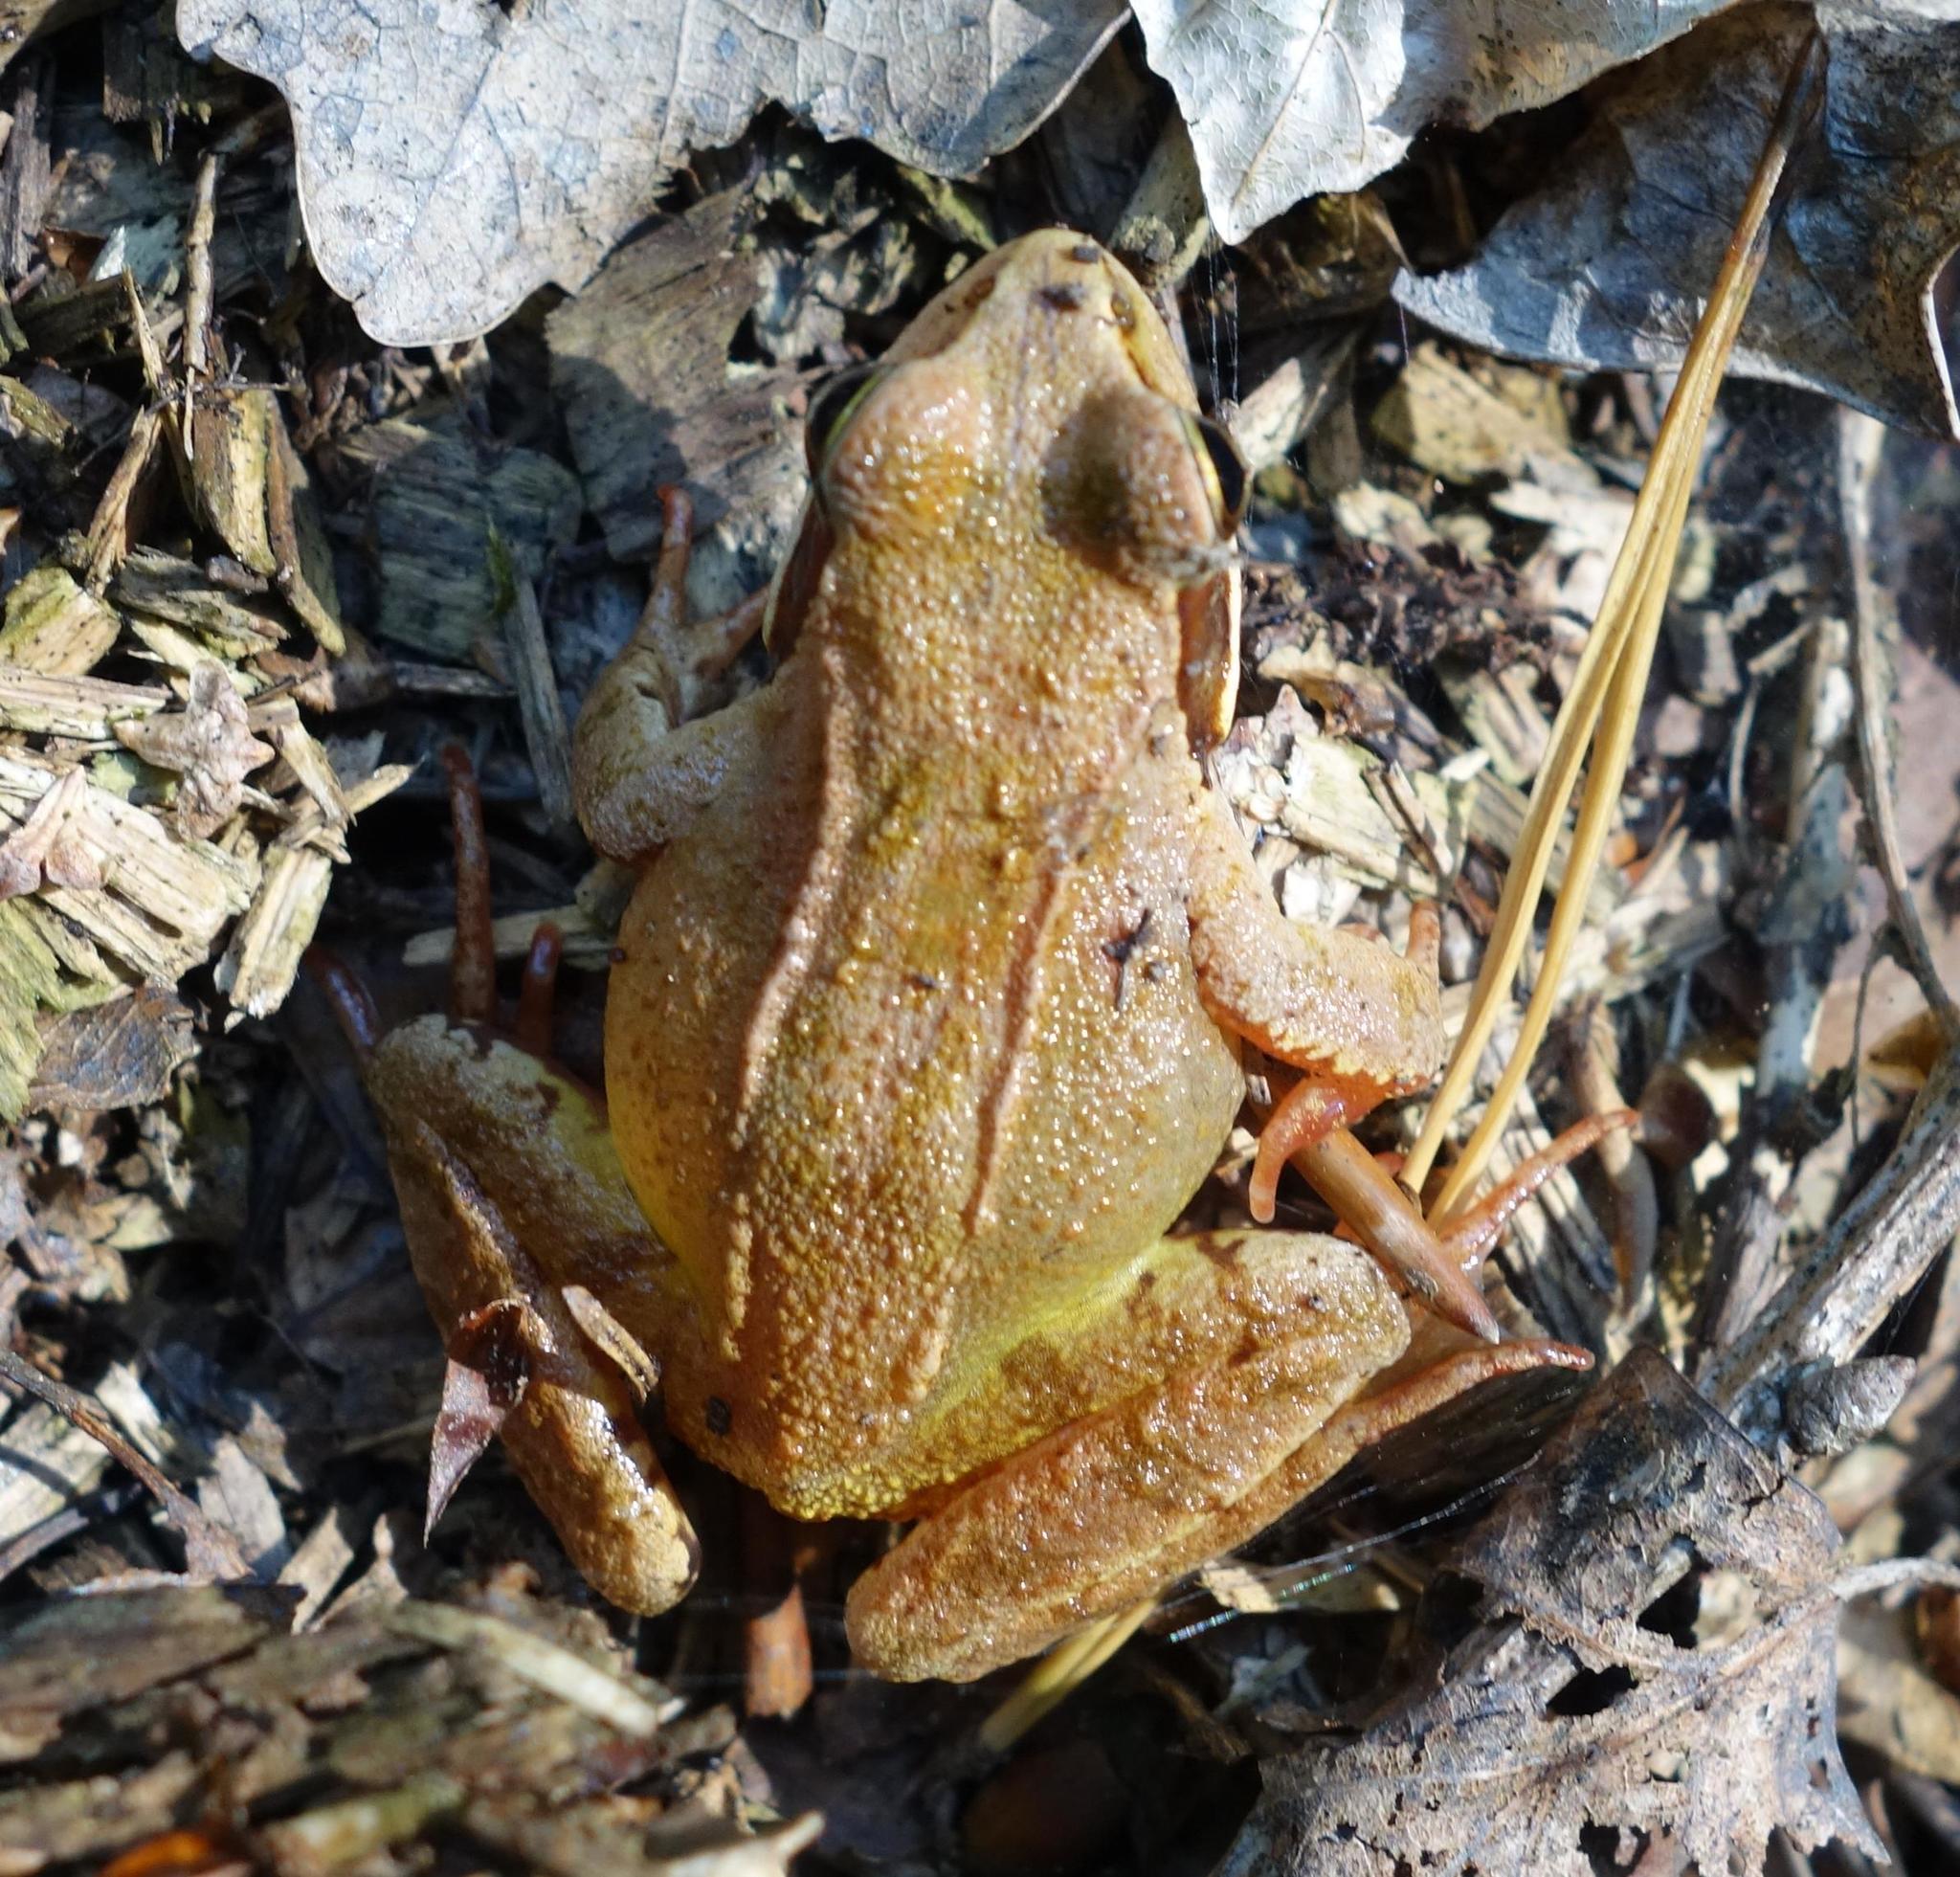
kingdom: Animalia
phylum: Chordata
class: Amphibia
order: Anura
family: Ranidae
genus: Rana
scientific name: Rana temporaria
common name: Common frog
